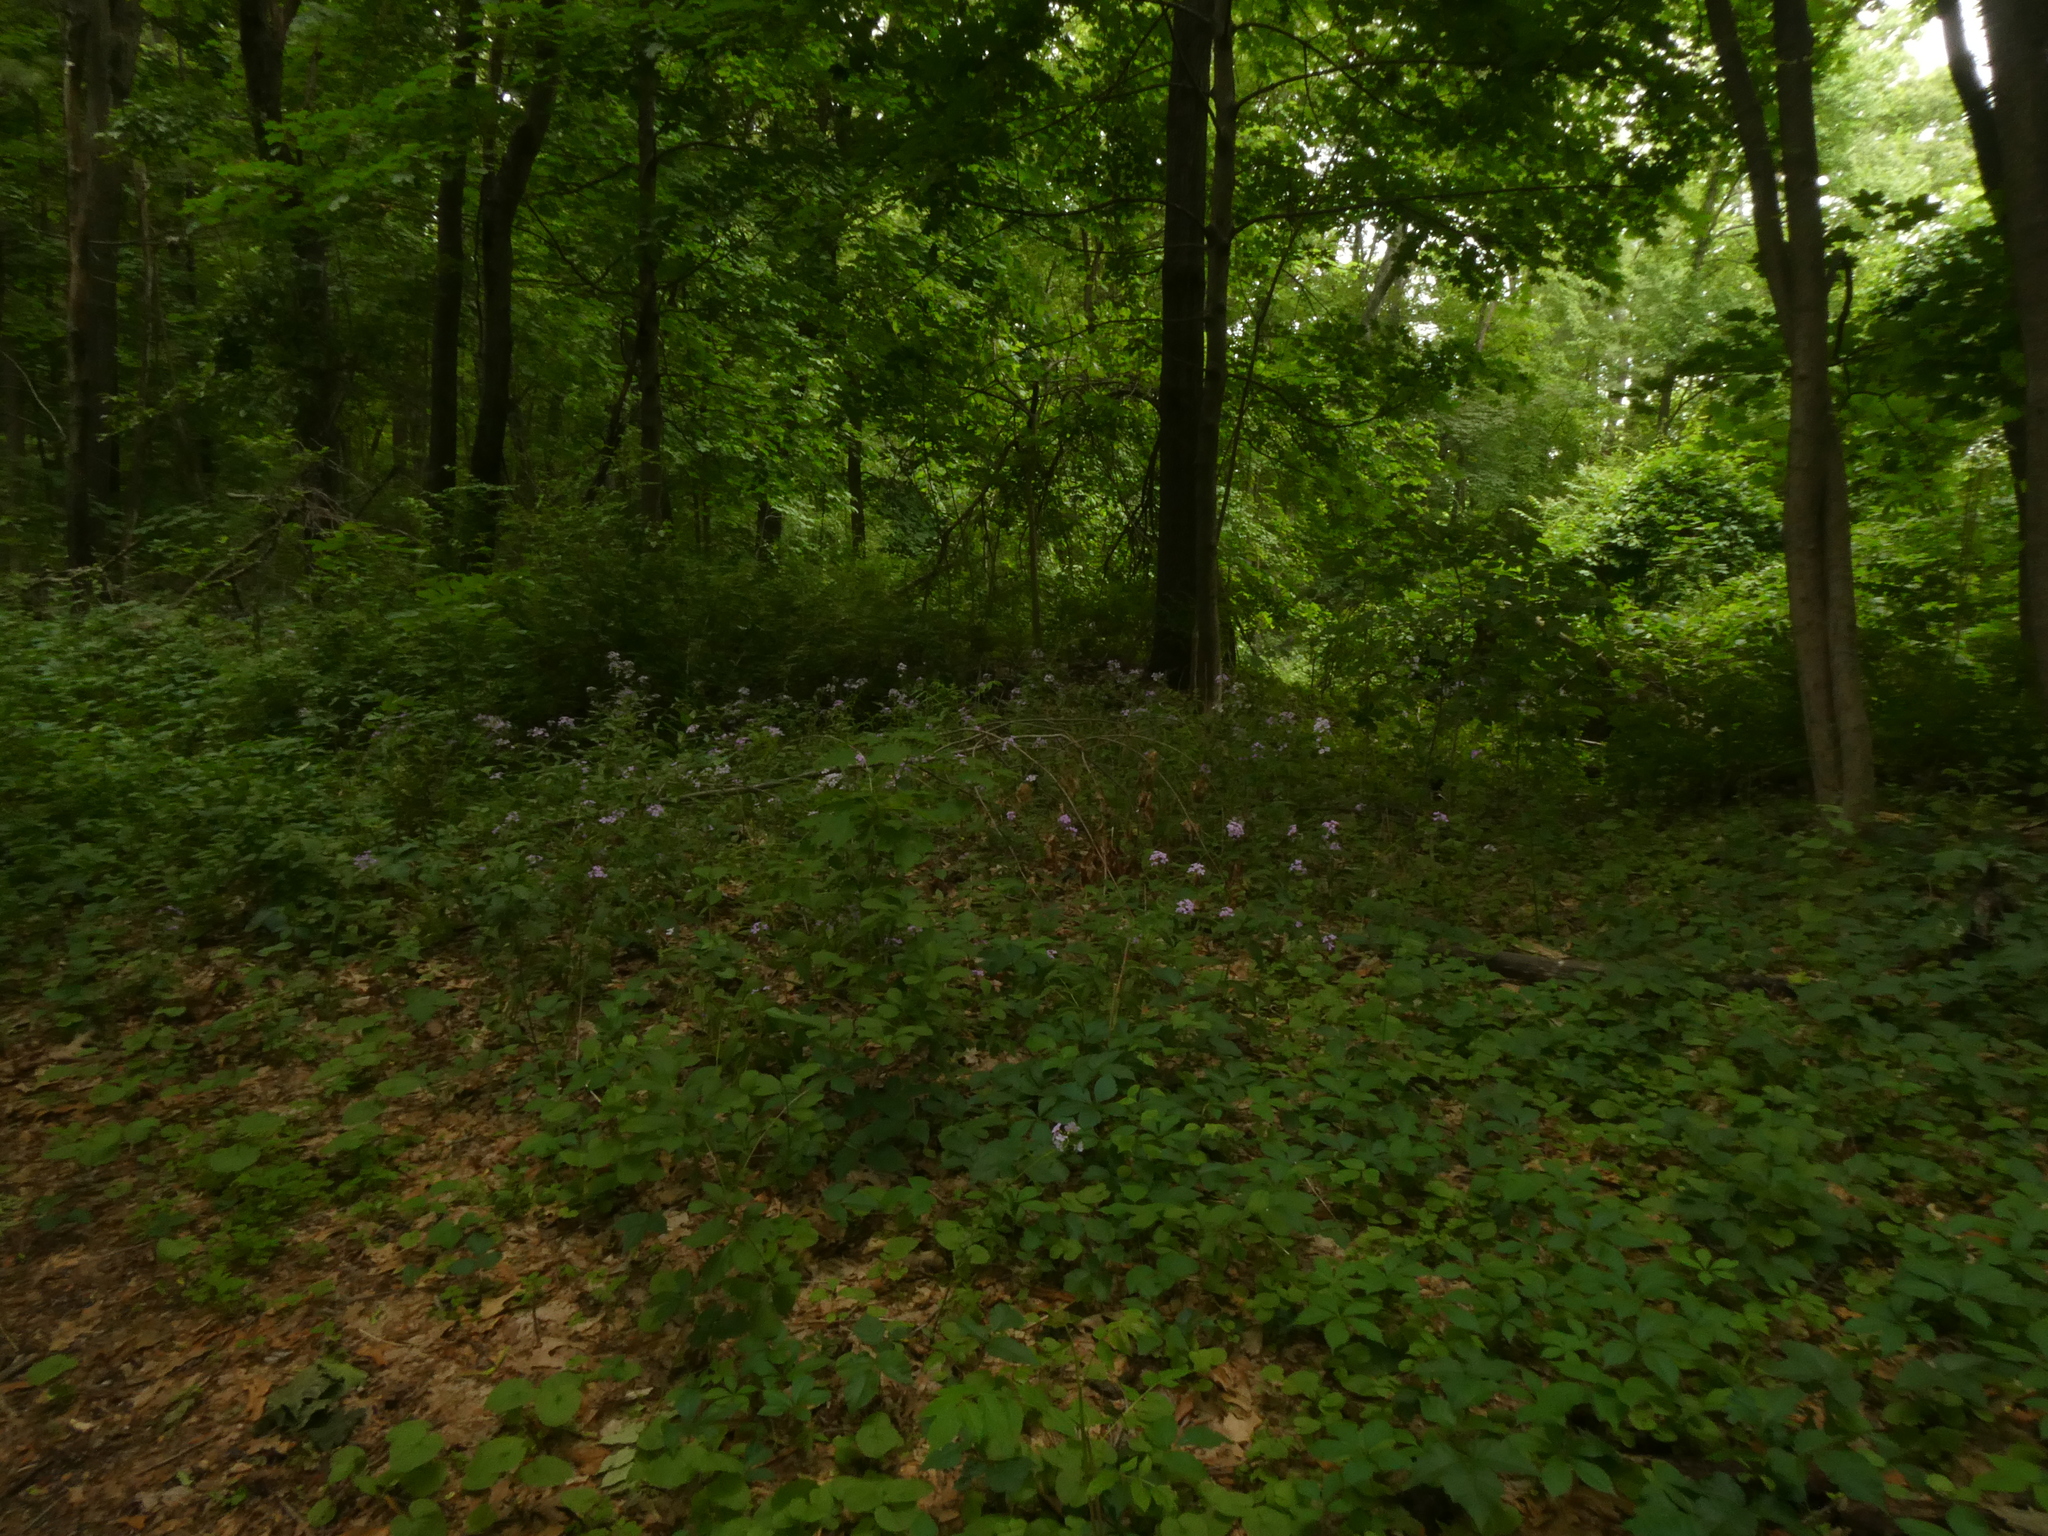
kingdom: Plantae
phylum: Tracheophyta
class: Magnoliopsida
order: Brassicales
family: Brassicaceae
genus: Hesperis
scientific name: Hesperis matronalis
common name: Dame's-violet
